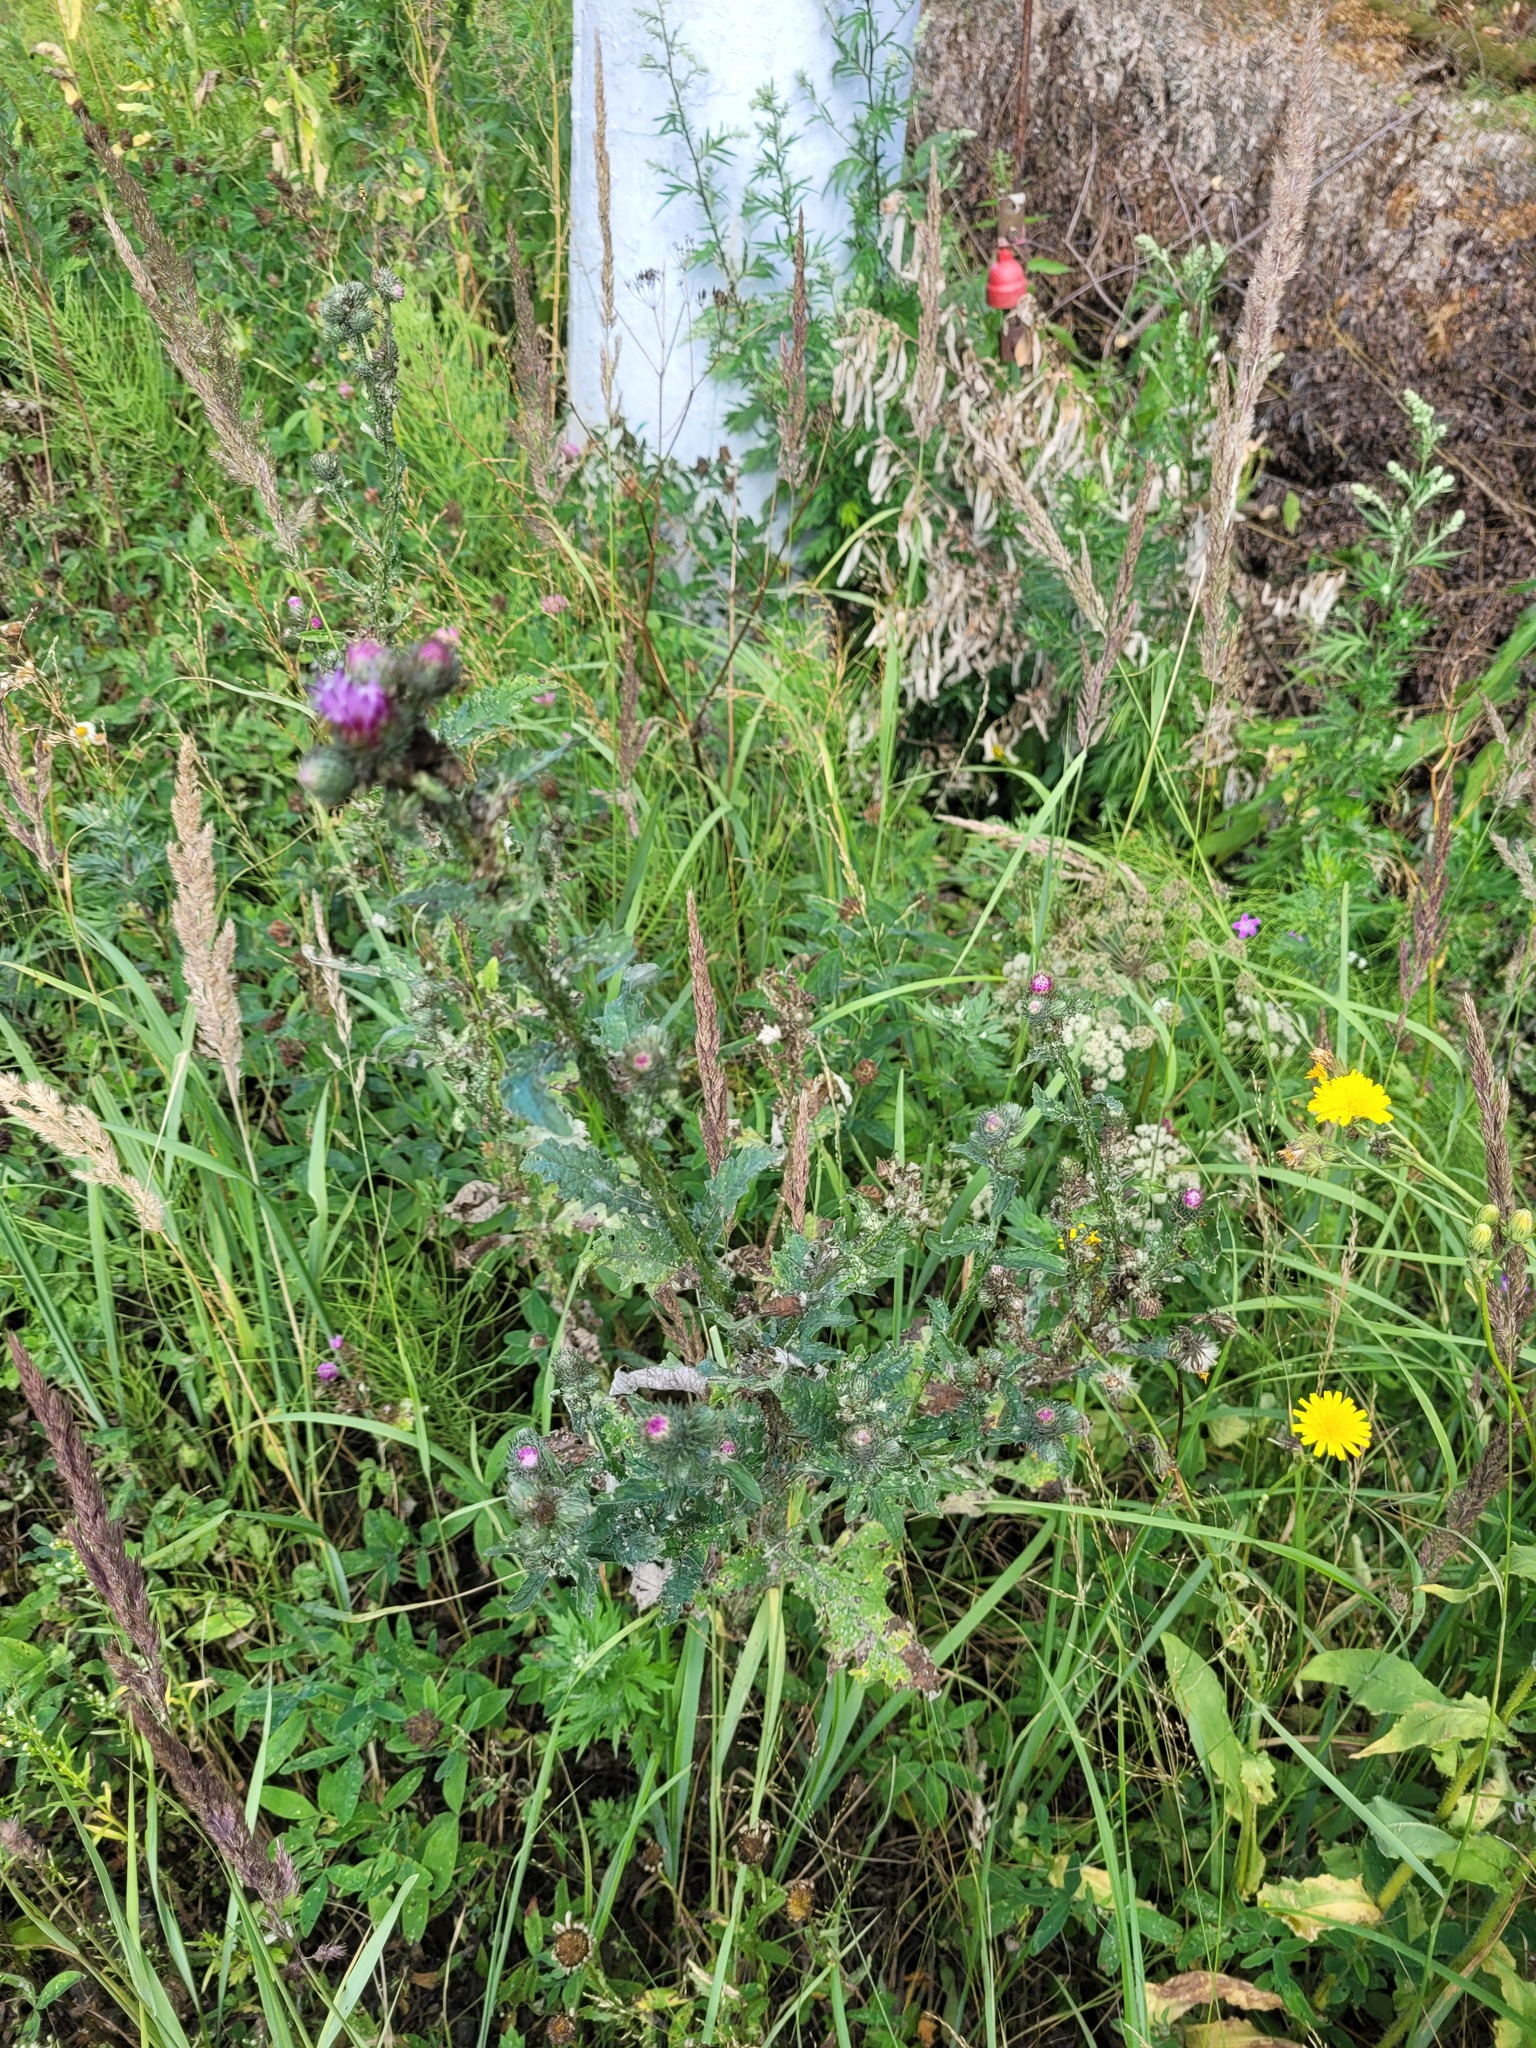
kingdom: Plantae
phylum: Tracheophyta
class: Magnoliopsida
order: Asterales
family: Asteraceae
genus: Carduus
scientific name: Carduus crispus
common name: Welted thistle
